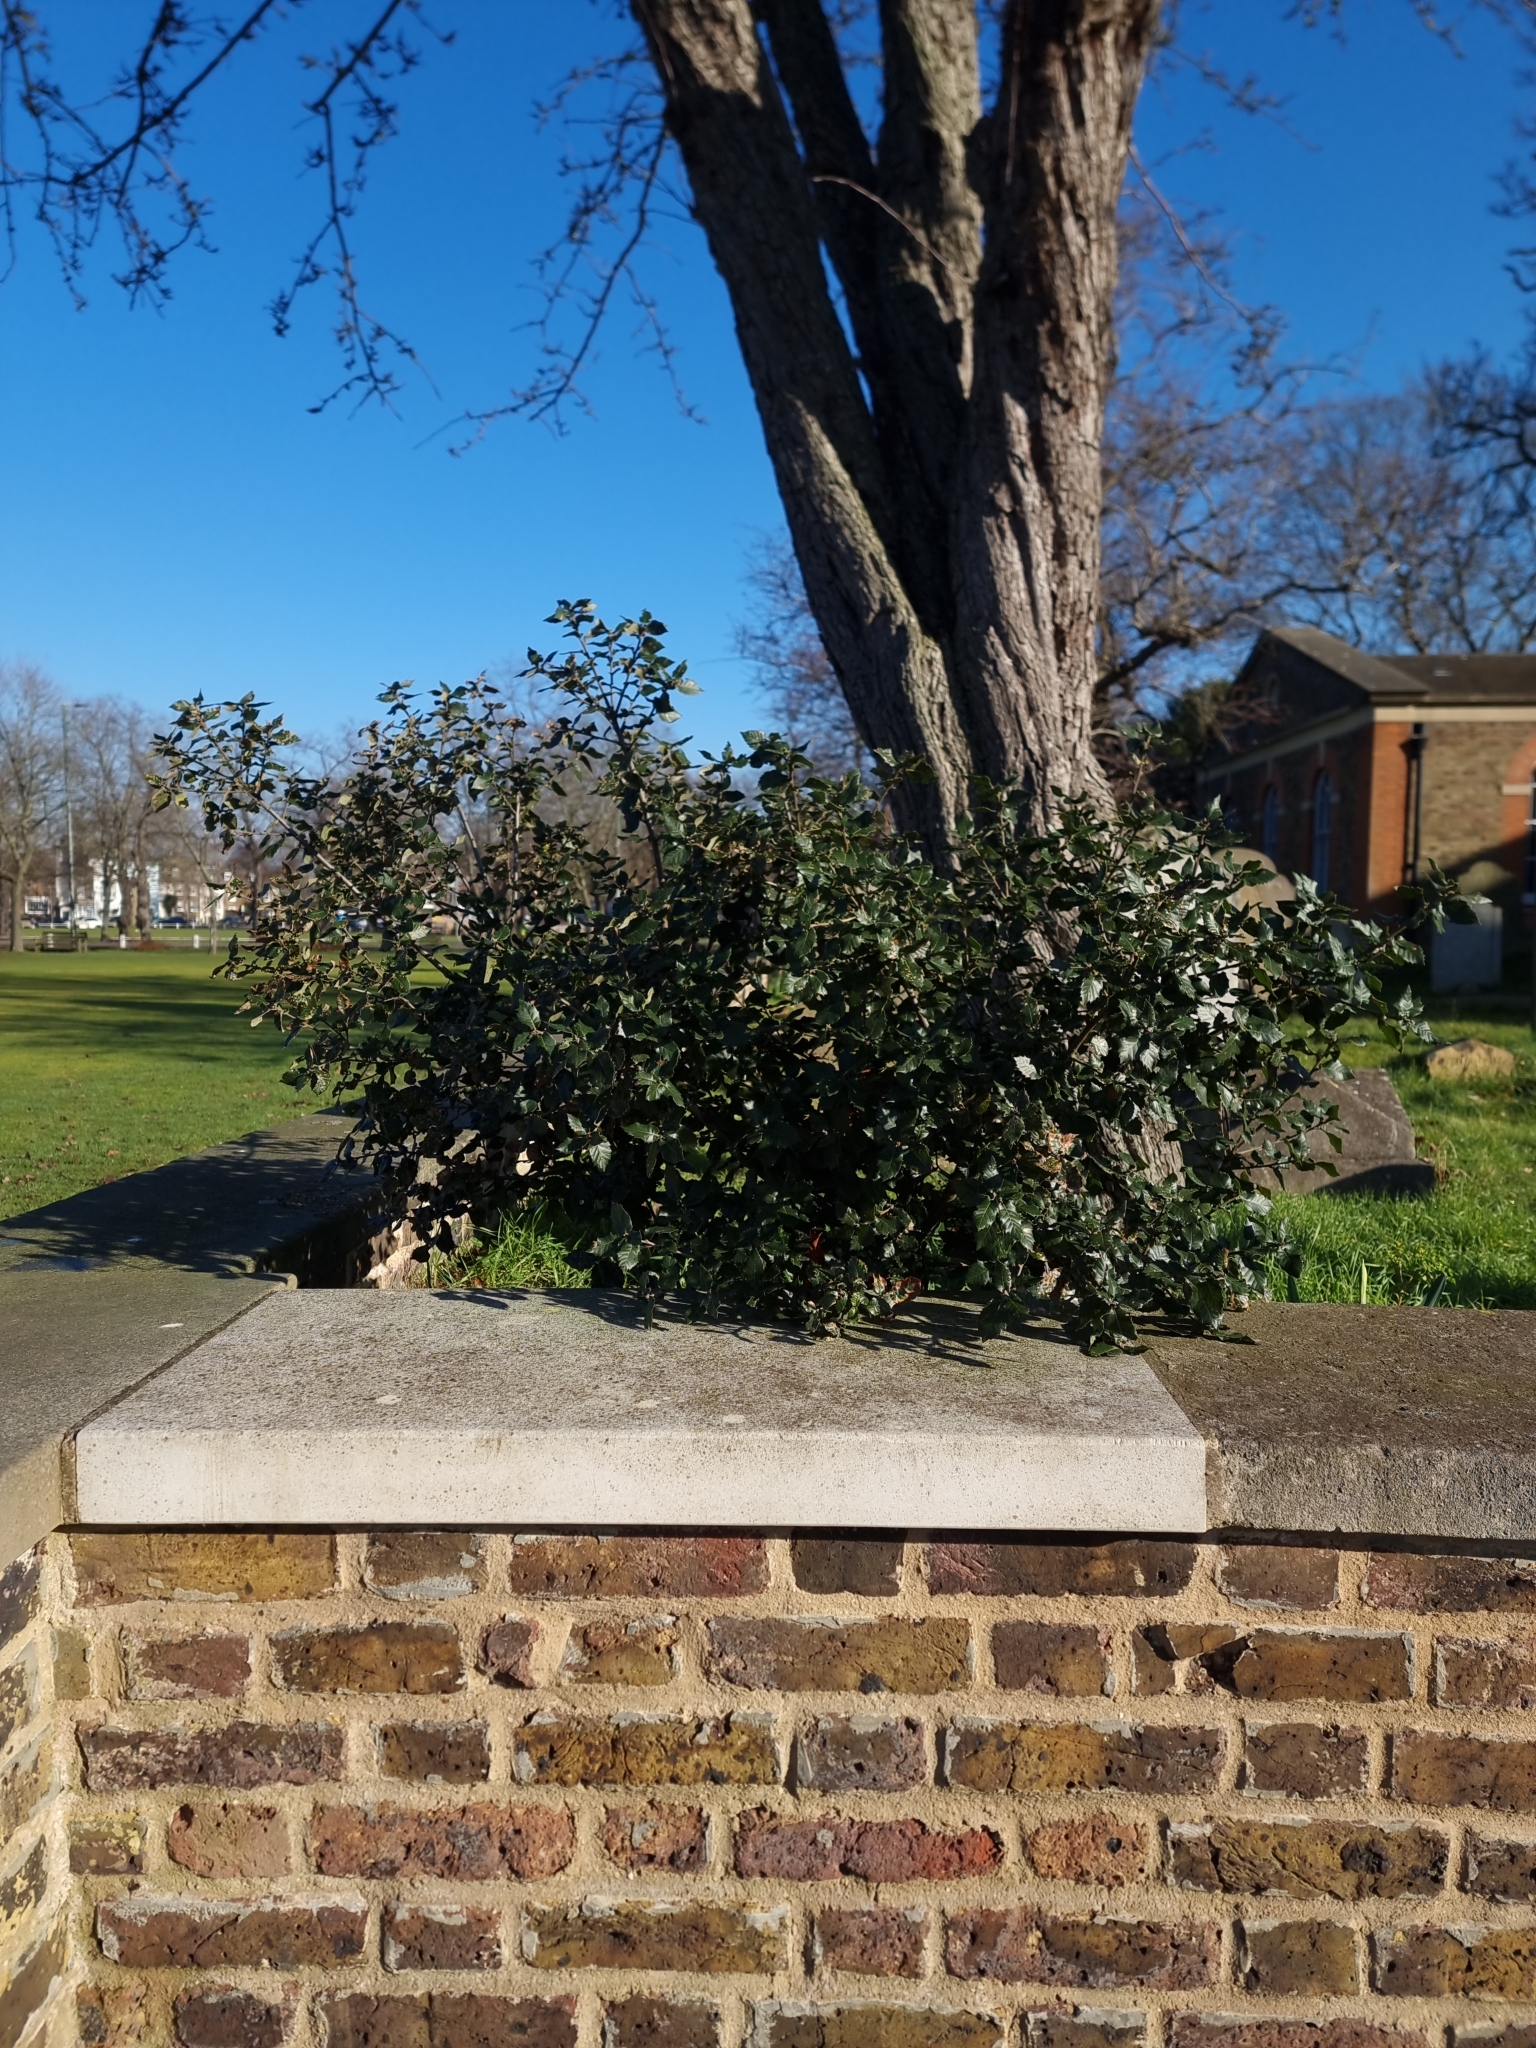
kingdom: Plantae
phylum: Tracheophyta
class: Magnoliopsida
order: Fagales
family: Fagaceae
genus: Quercus
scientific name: Quercus ilex
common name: Evergreen oak
